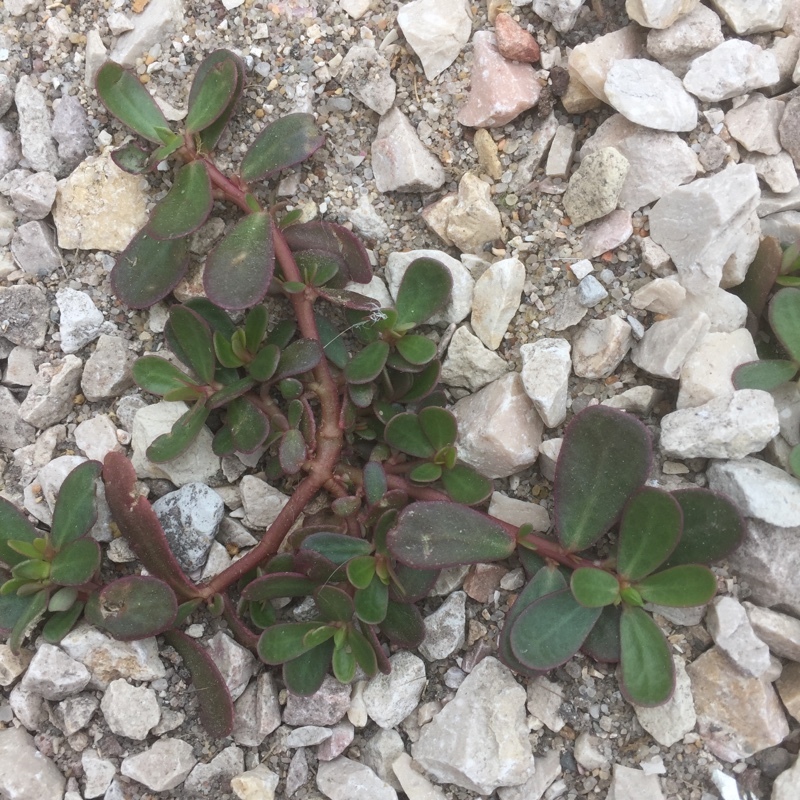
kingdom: Plantae
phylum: Tracheophyta
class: Magnoliopsida
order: Caryophyllales
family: Portulacaceae
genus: Portulaca
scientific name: Portulaca oleracea
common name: Common purslane
